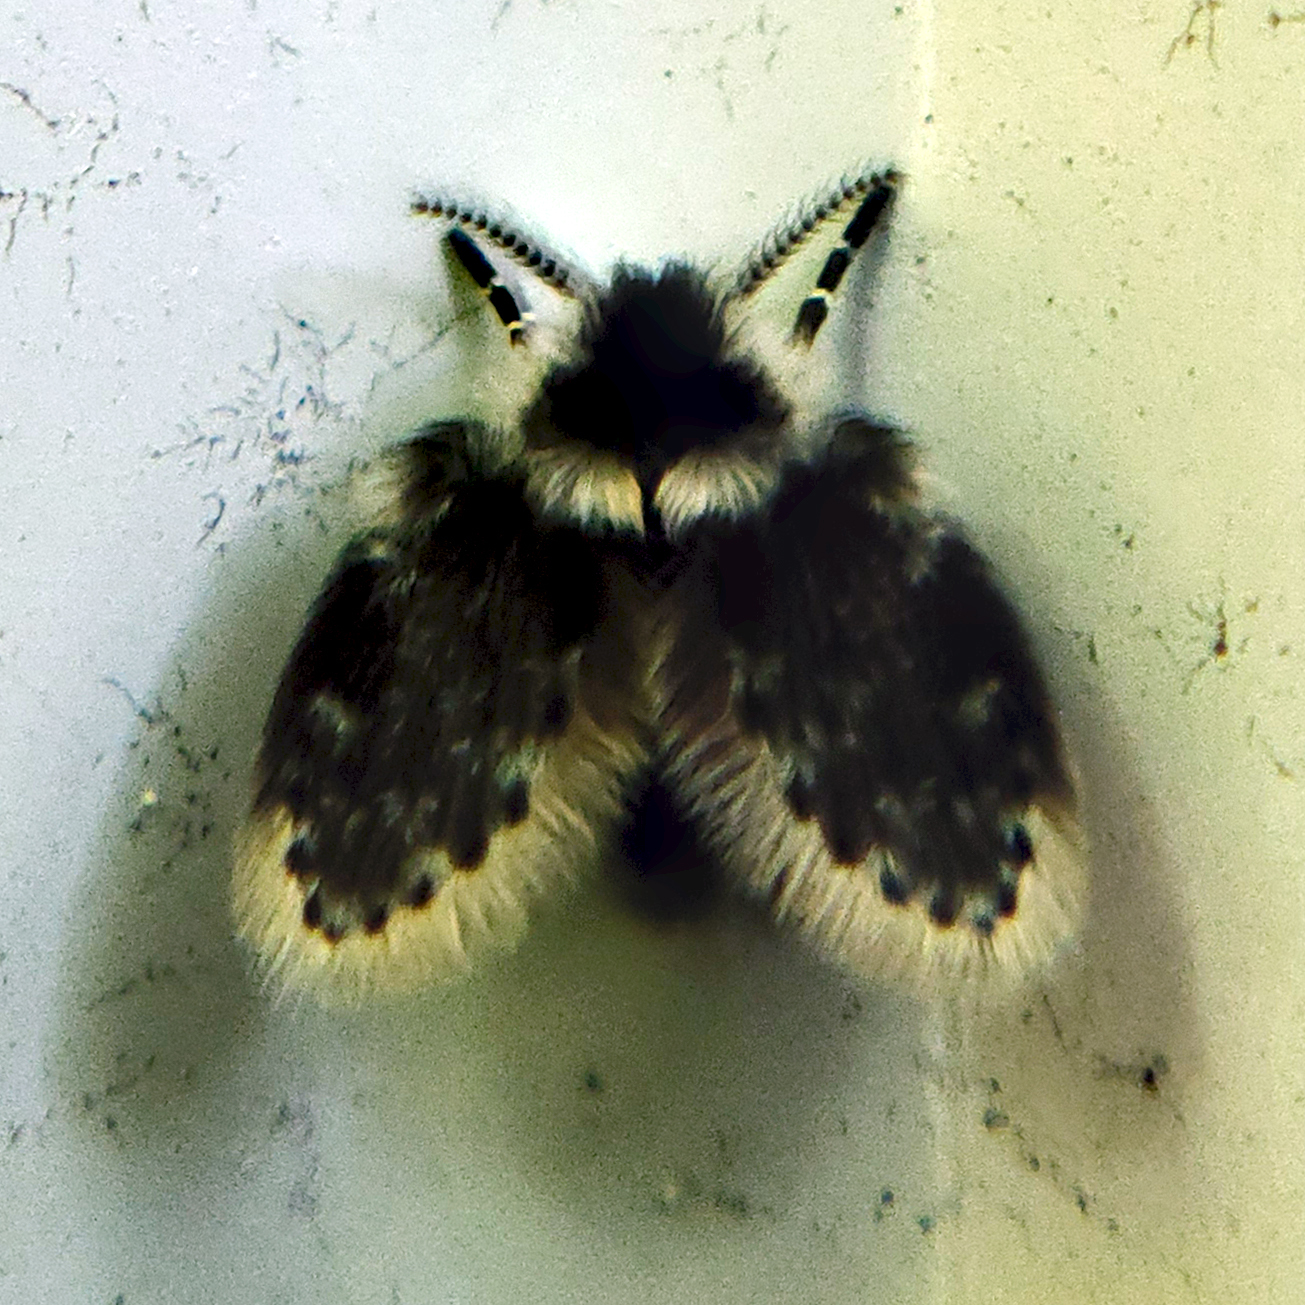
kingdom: Animalia
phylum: Arthropoda
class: Insecta
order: Diptera
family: Psychodidae
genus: Lepiseodina
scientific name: Lepiseodina
